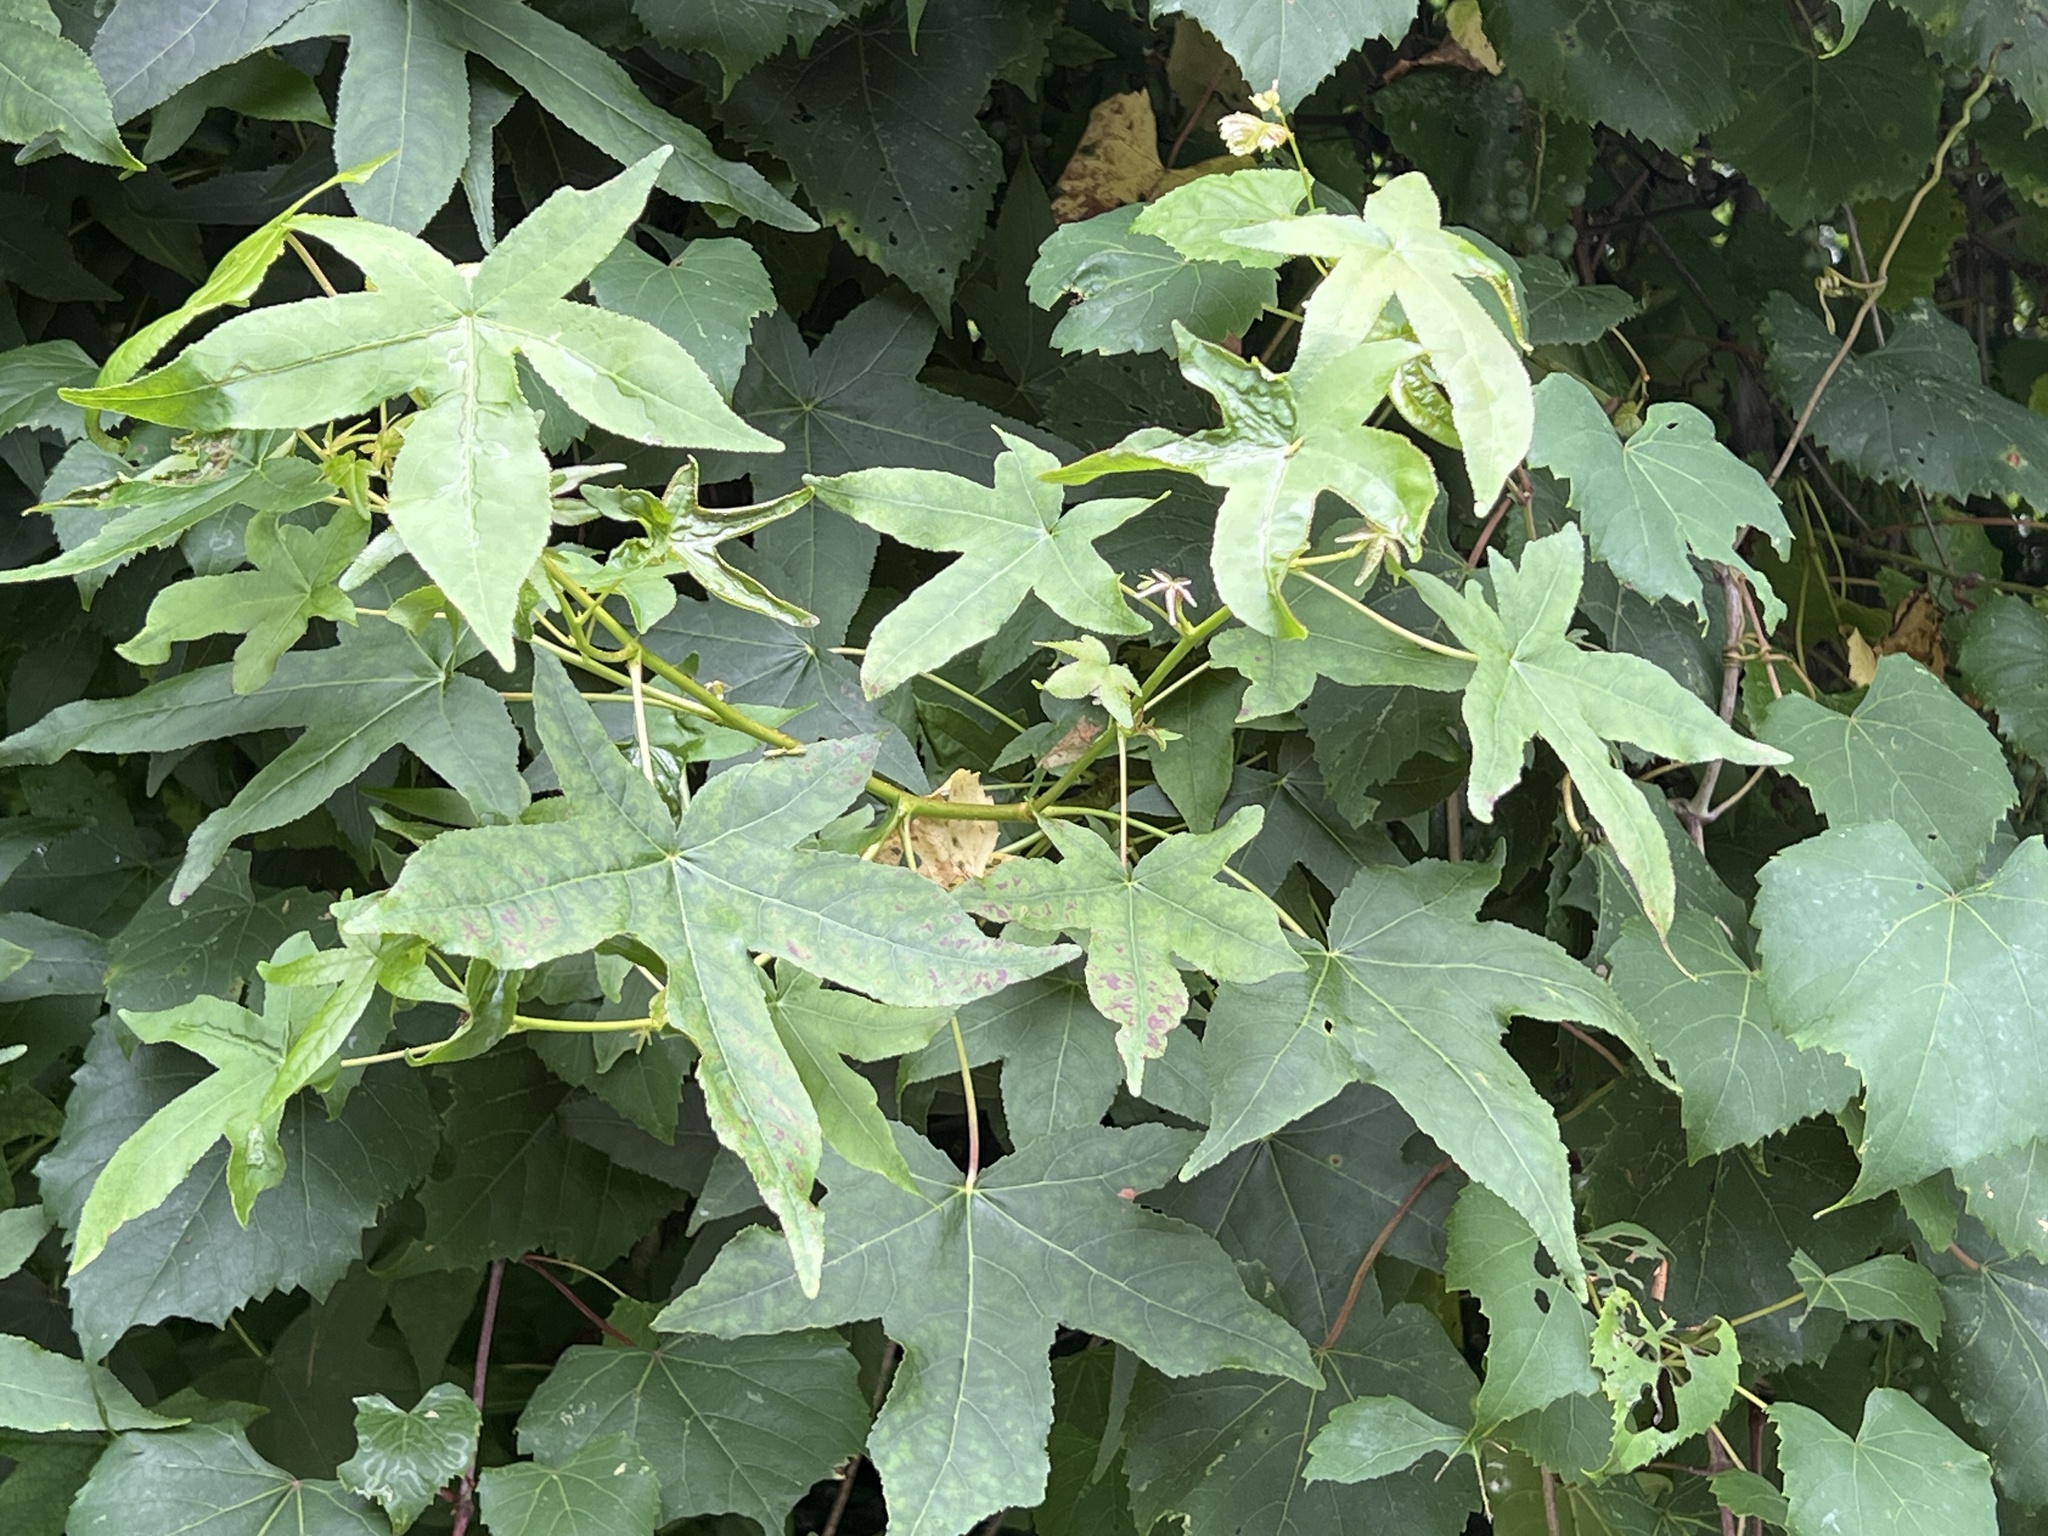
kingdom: Plantae
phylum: Tracheophyta
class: Magnoliopsida
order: Saxifragales
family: Altingiaceae
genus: Liquidambar
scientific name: Liquidambar styraciflua
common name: Sweet gum
